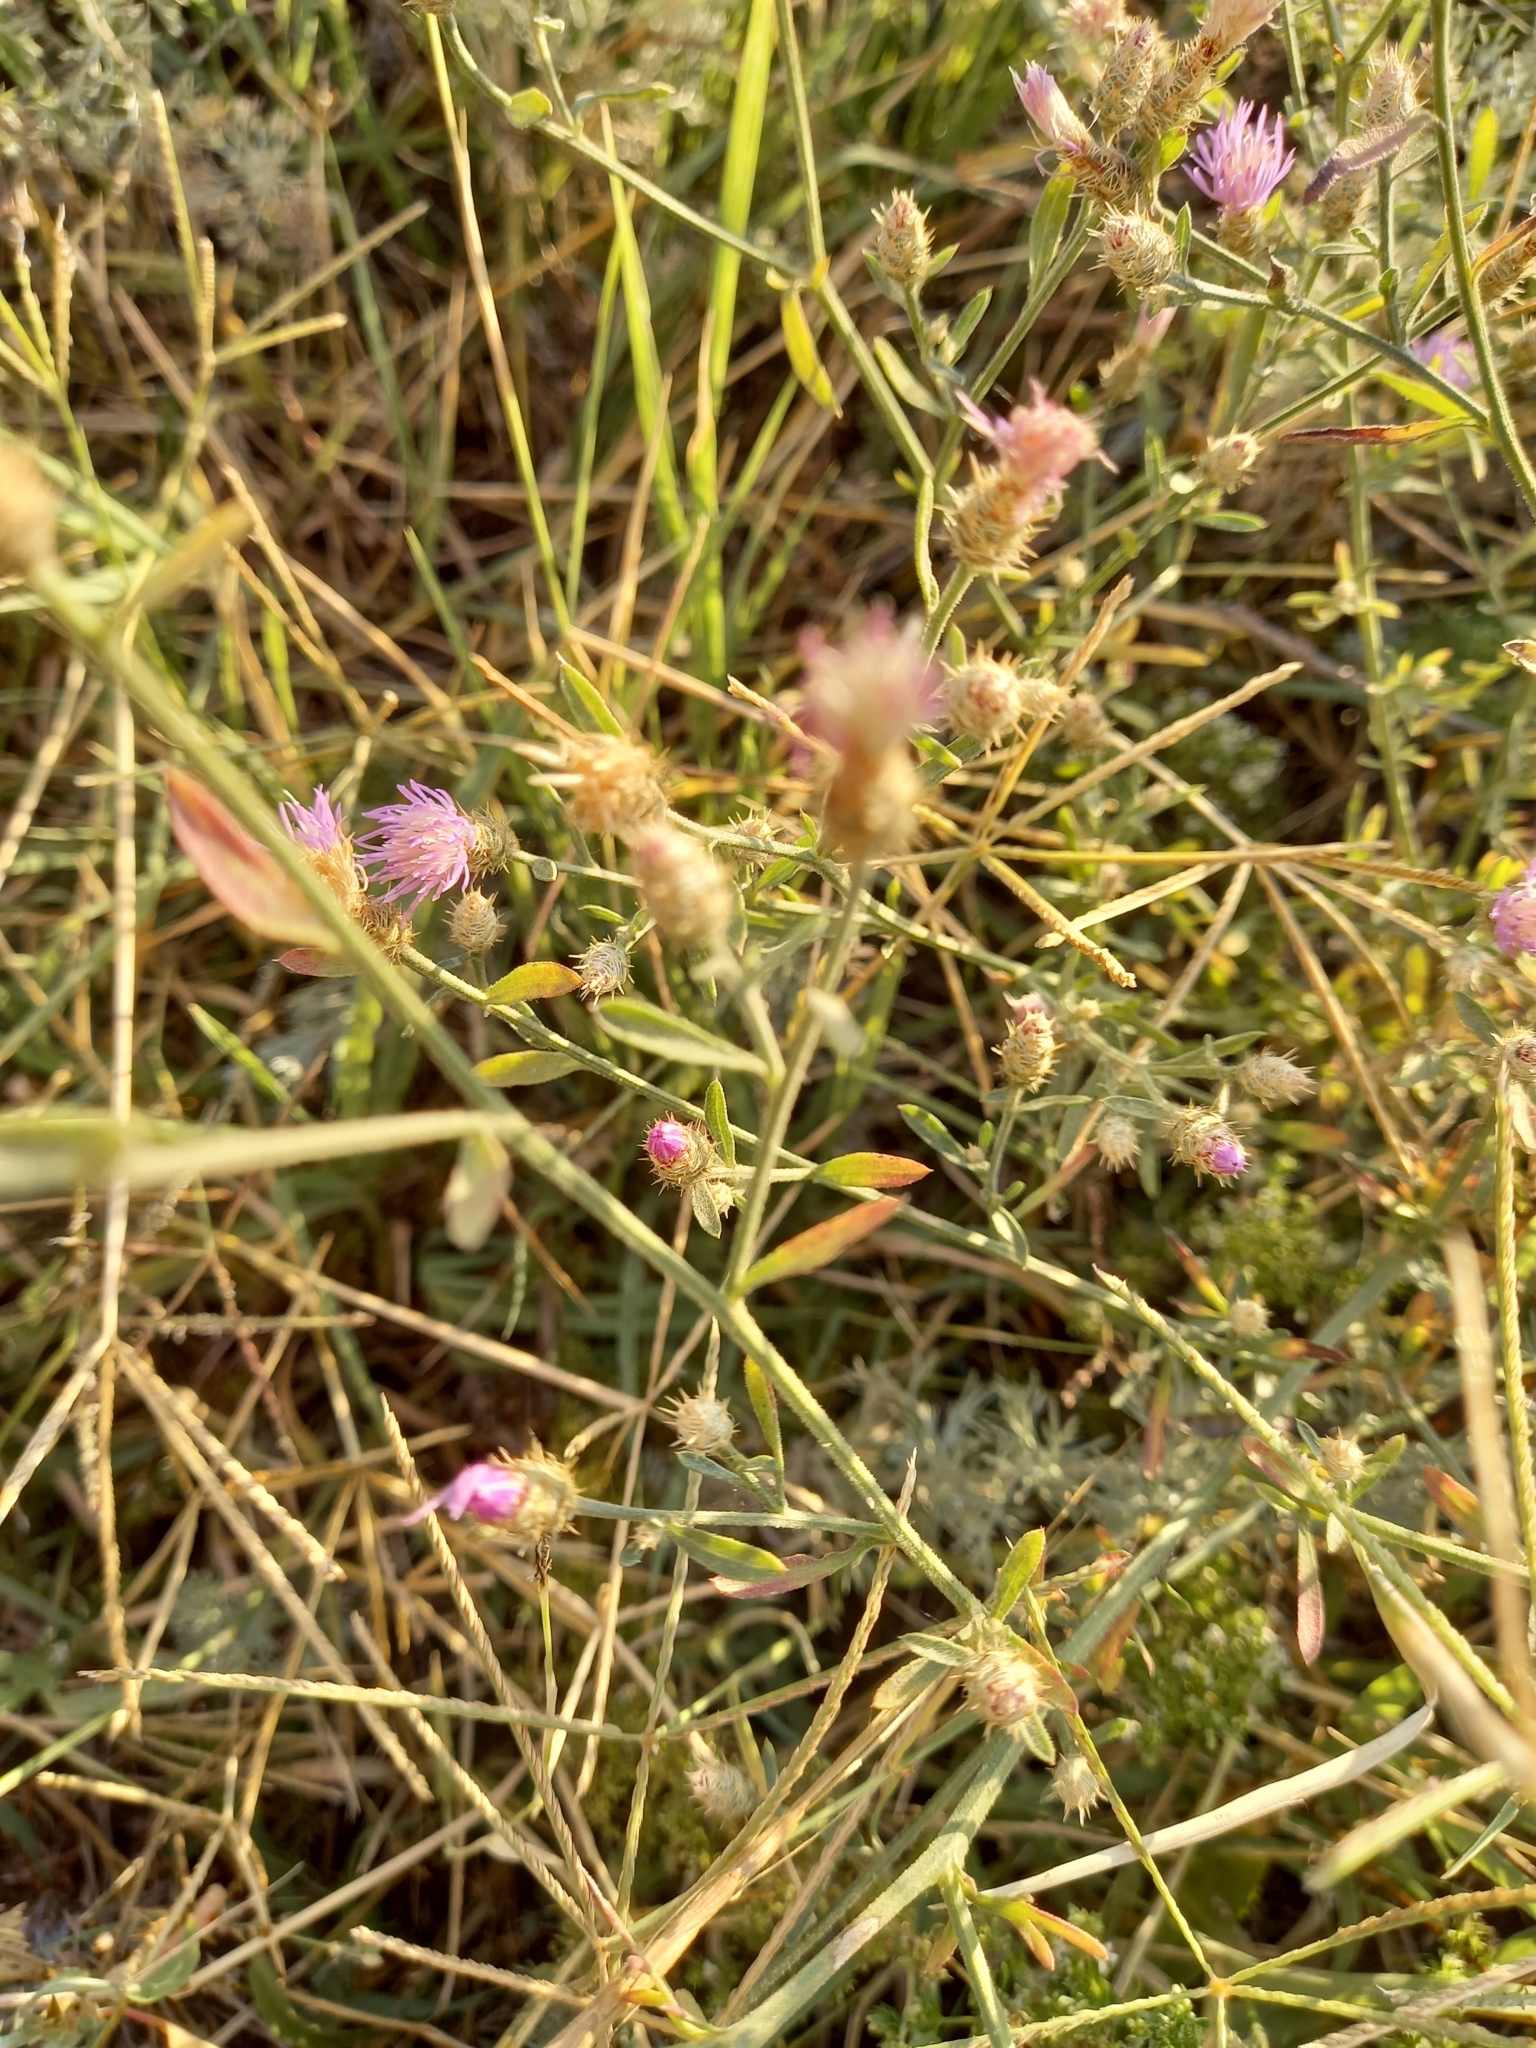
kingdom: Plantae
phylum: Tracheophyta
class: Magnoliopsida
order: Asterales
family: Asteraceae
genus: Centaurea
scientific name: Centaurea diffusa
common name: Diffuse knapweed
